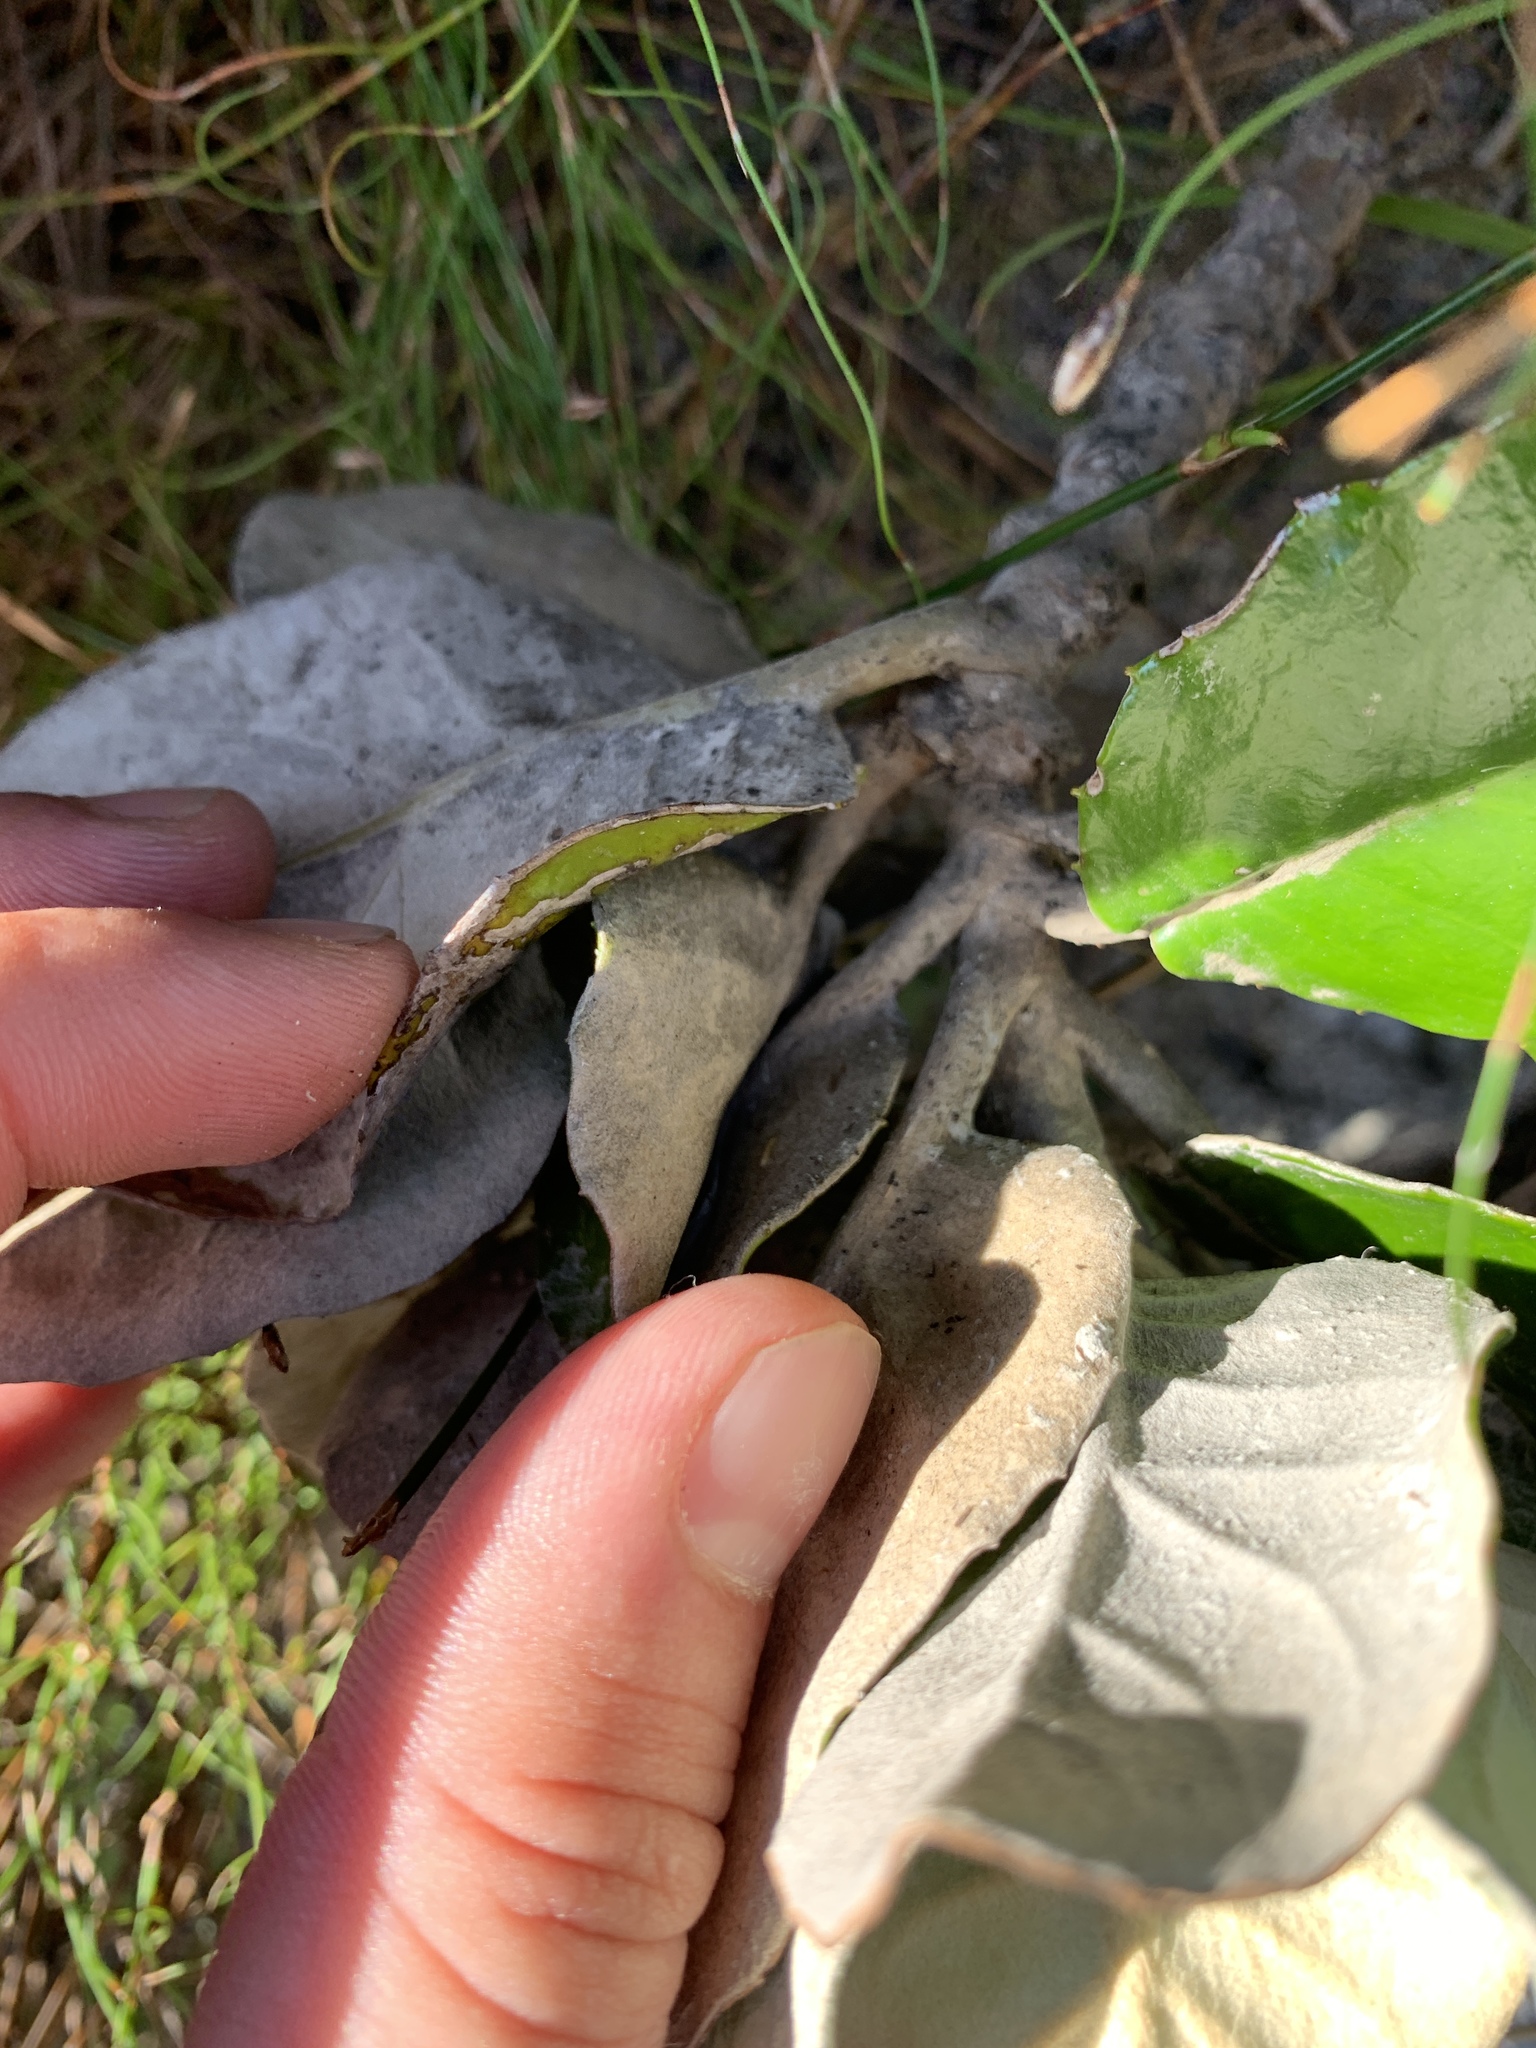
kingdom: Plantae
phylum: Tracheophyta
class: Magnoliopsida
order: Asterales
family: Asteraceae
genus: Capelio
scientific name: Capelio tabularis
